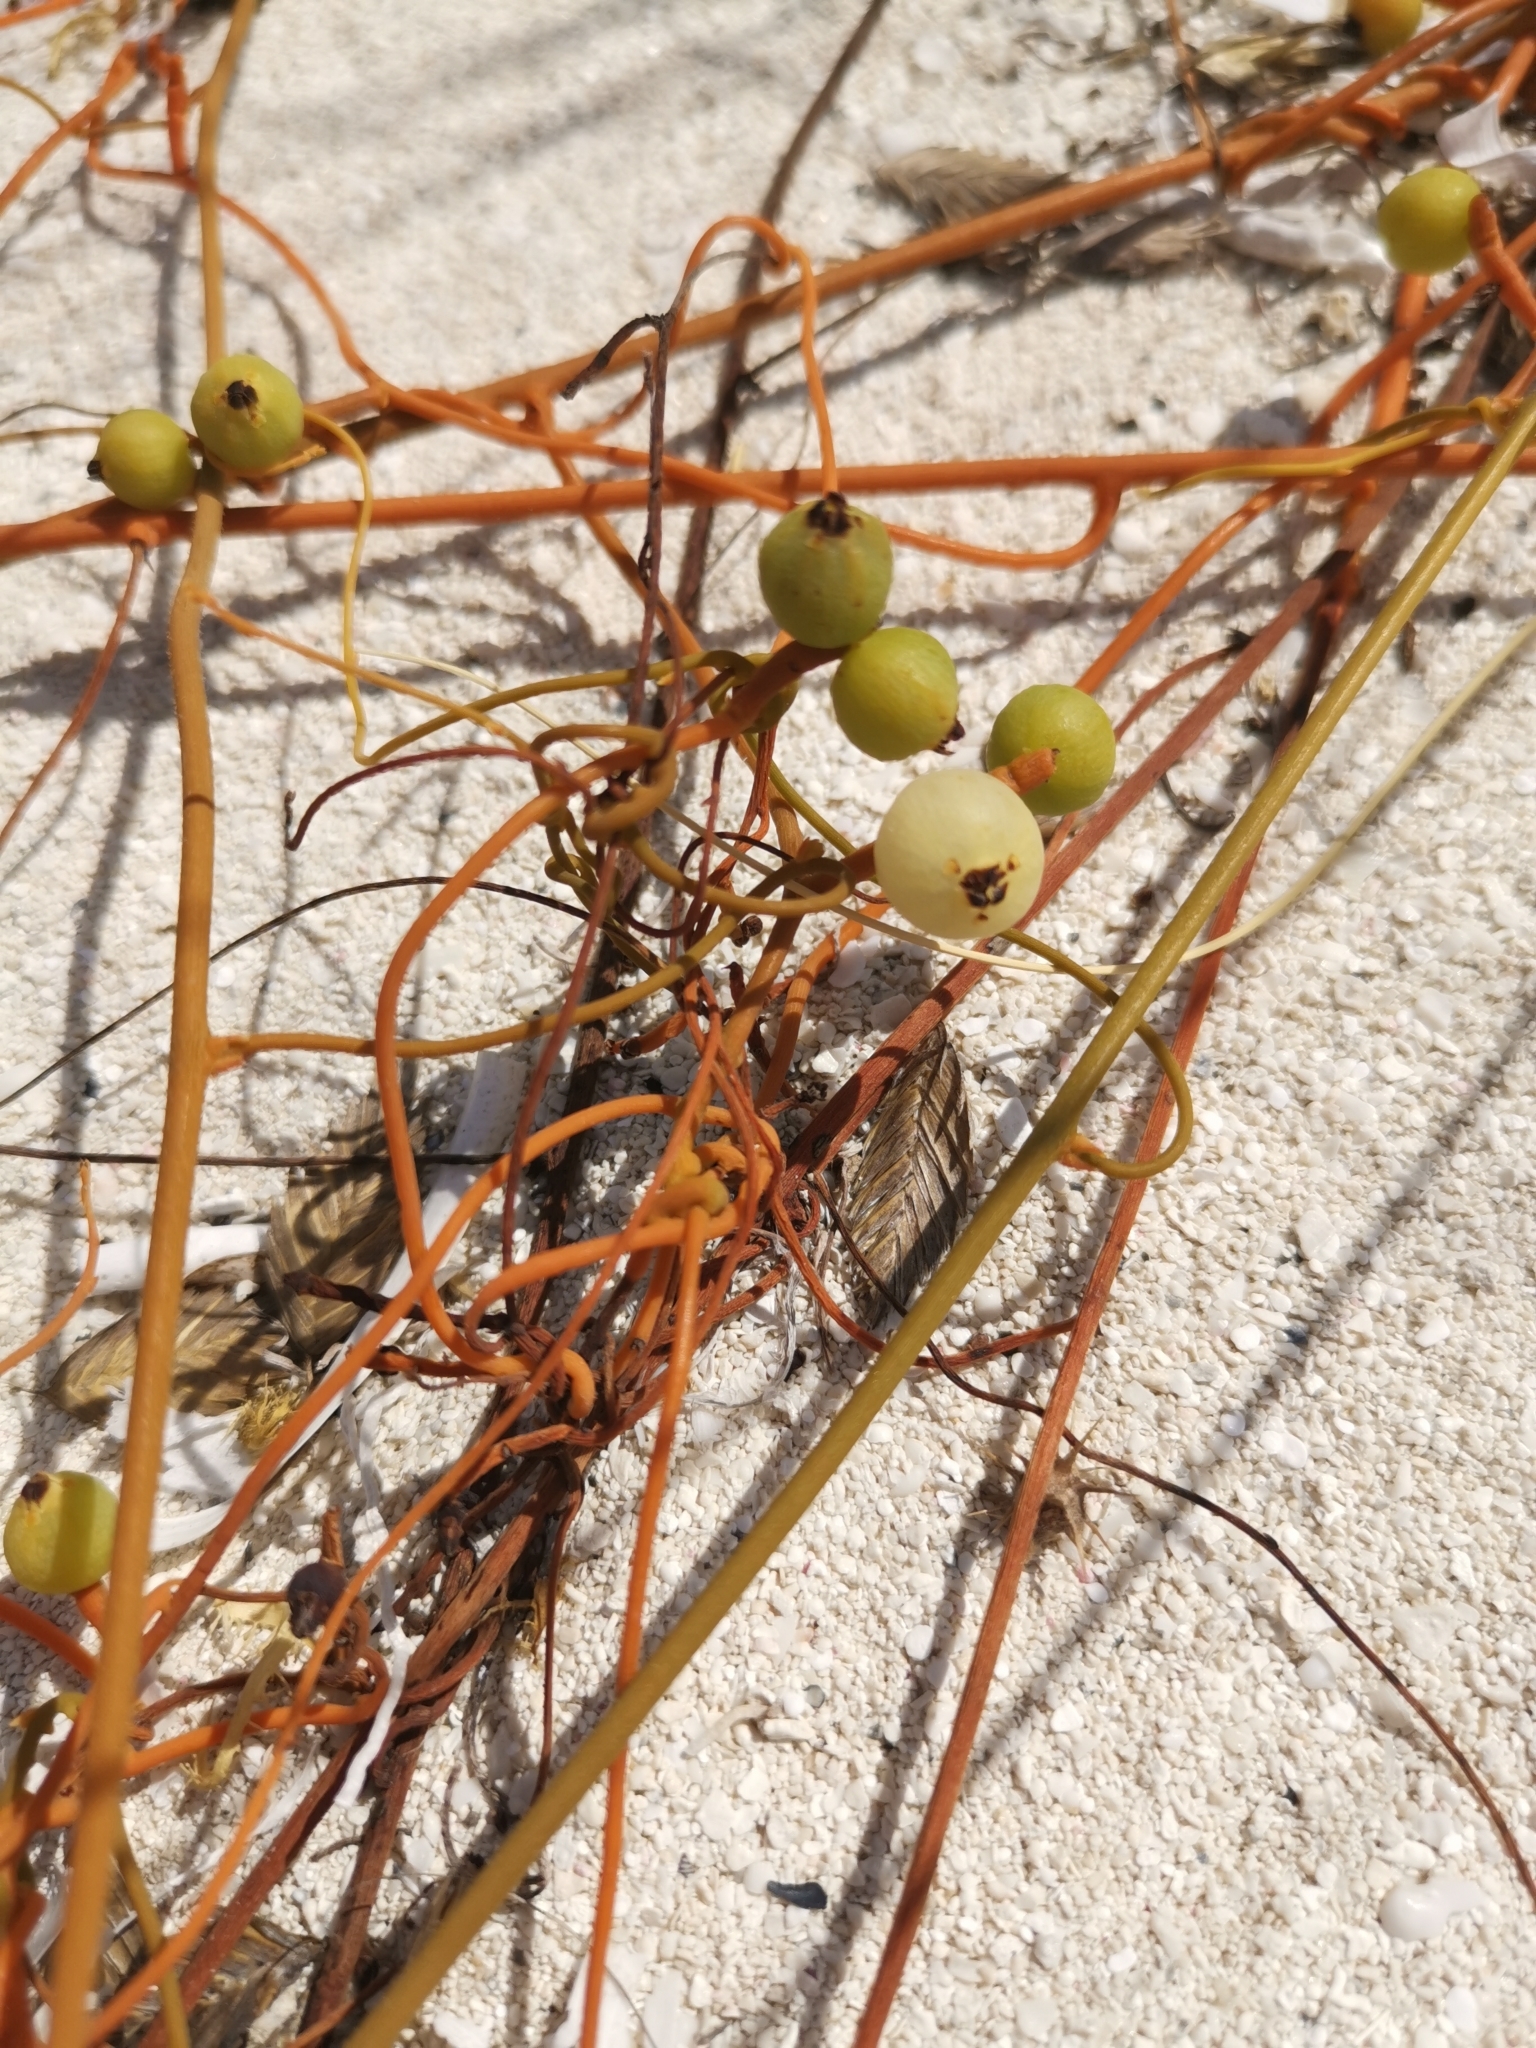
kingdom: Plantae
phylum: Tracheophyta
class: Magnoliopsida
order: Laurales
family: Lauraceae
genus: Cassytha
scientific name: Cassytha filiformis
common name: Dodder-laurel
